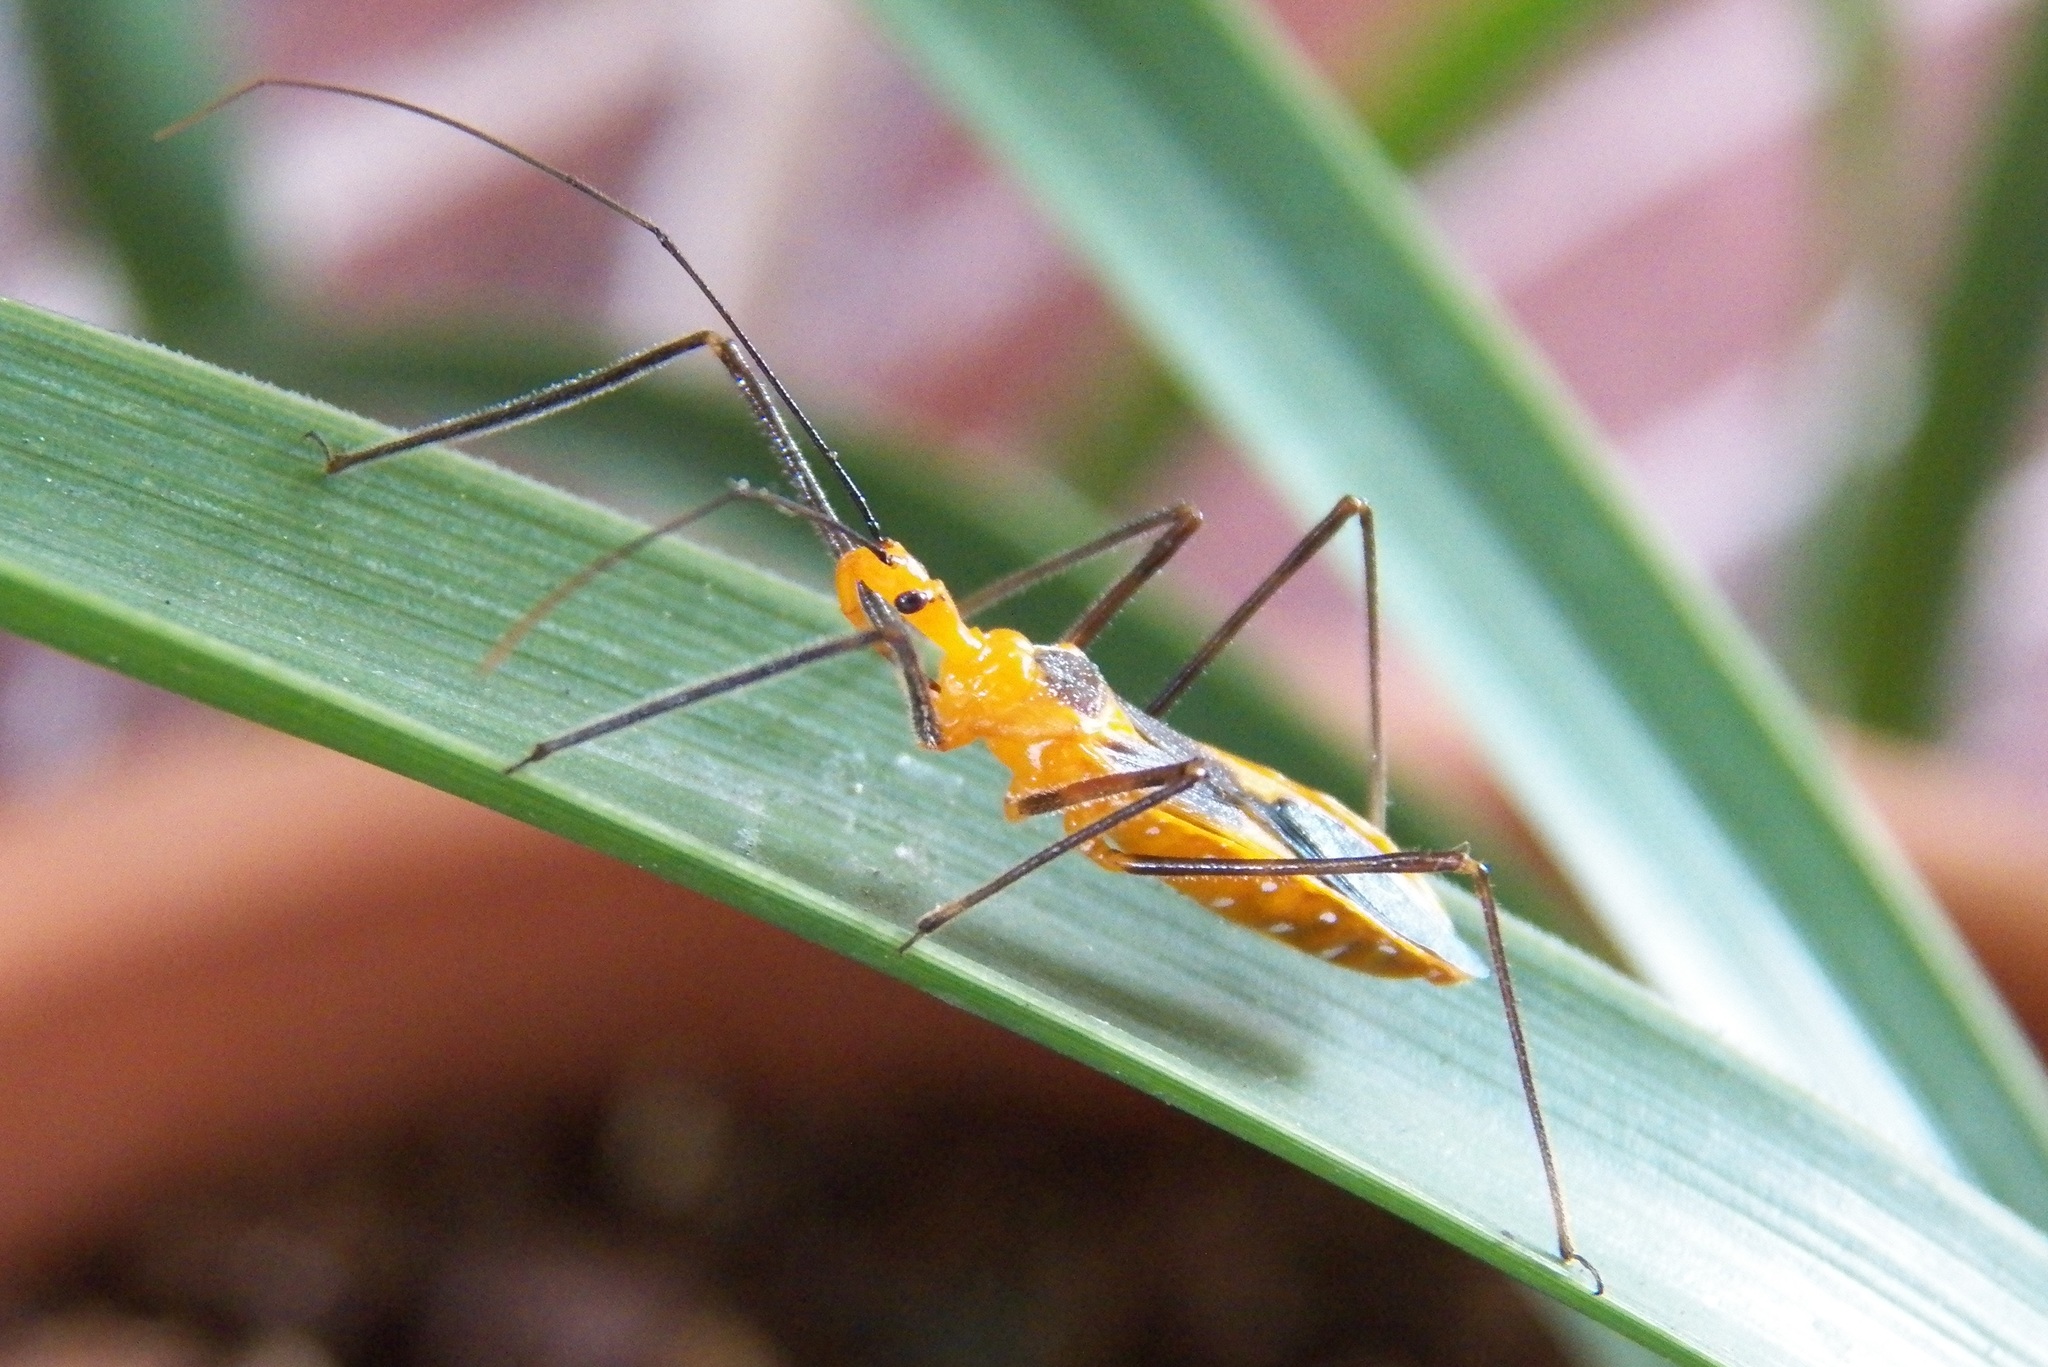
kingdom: Animalia
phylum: Arthropoda
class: Insecta
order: Hemiptera
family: Reduviidae
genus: Zelus
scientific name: Zelus longipes
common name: Milkweed assassin bug
